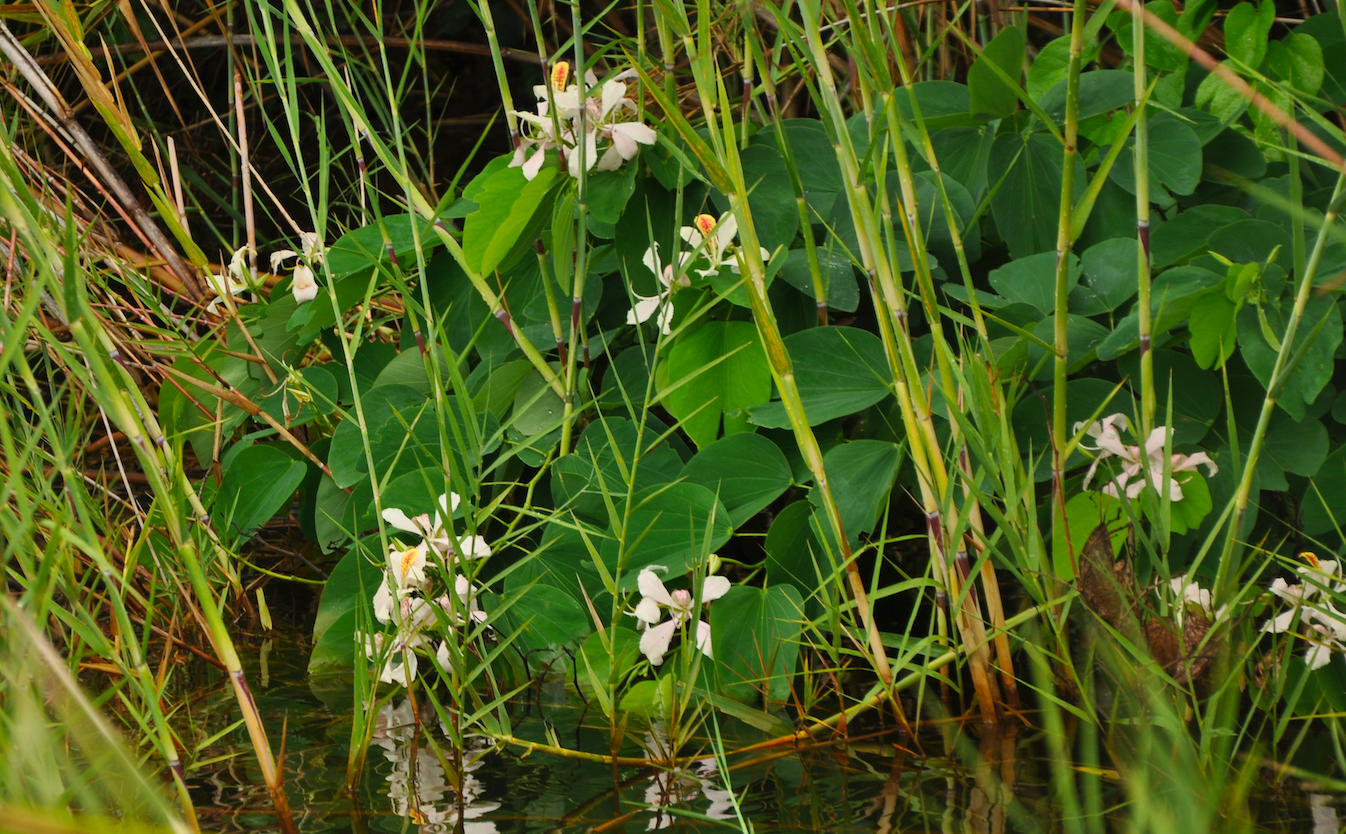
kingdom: Plantae
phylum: Tracheophyta
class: Magnoliopsida
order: Fabales
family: Fabaceae
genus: Bauhinia
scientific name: Bauhinia monandra
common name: Napoleon's plume
